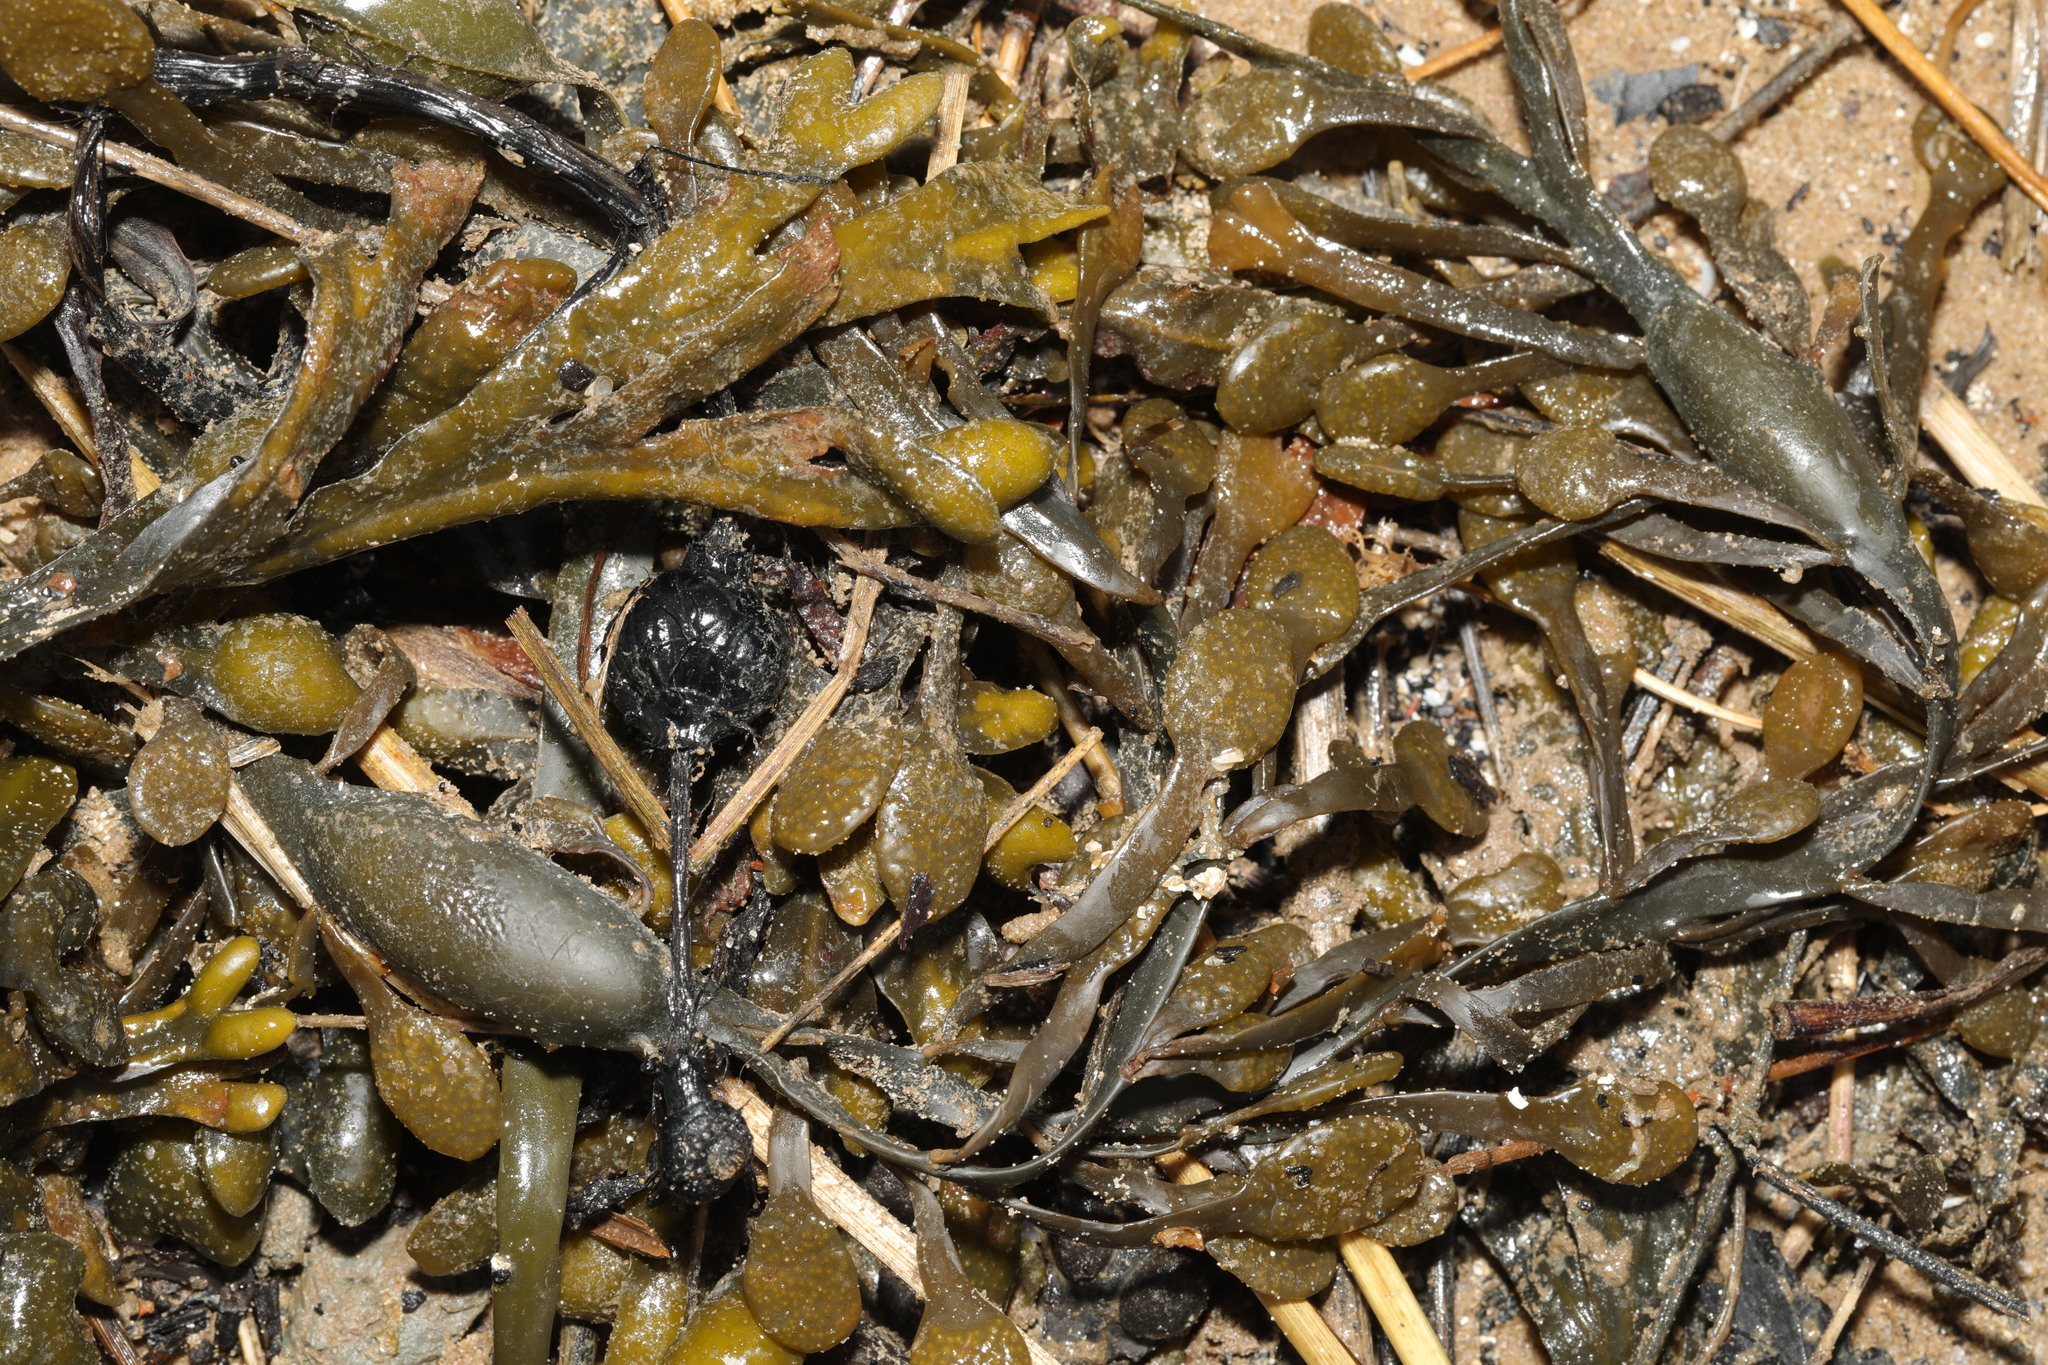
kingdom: Chromista
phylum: Ochrophyta
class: Phaeophyceae
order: Fucales
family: Fucaceae
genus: Ascophyllum
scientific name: Ascophyllum nodosum
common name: Knotted wrack
